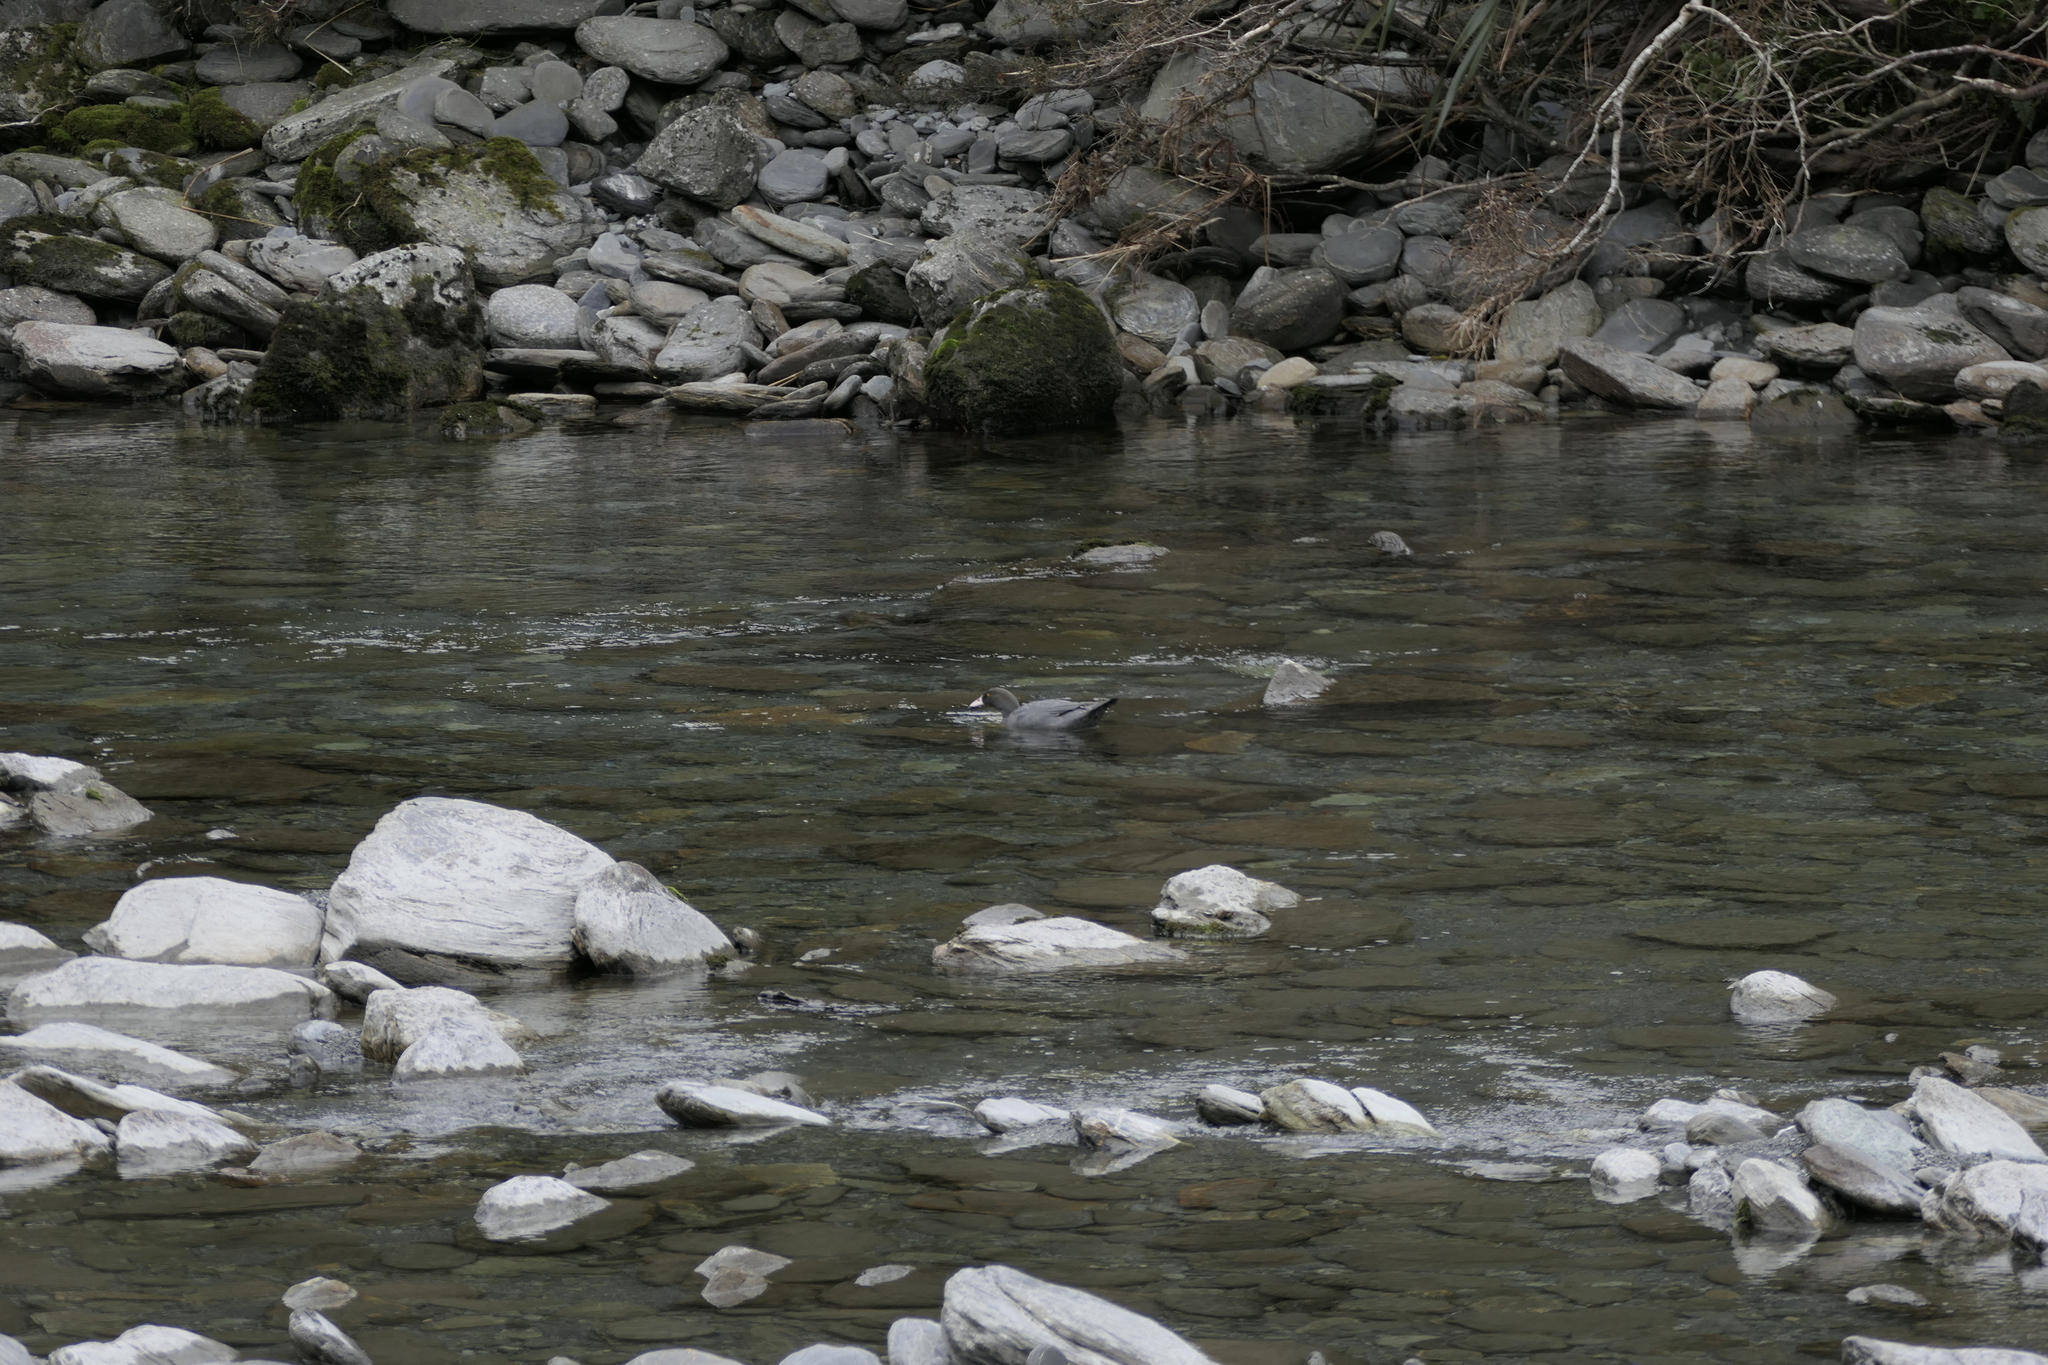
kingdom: Animalia
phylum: Chordata
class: Aves
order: Anseriformes
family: Anatidae
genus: Hymenolaimus
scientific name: Hymenolaimus malacorhynchos
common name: Blue duck
